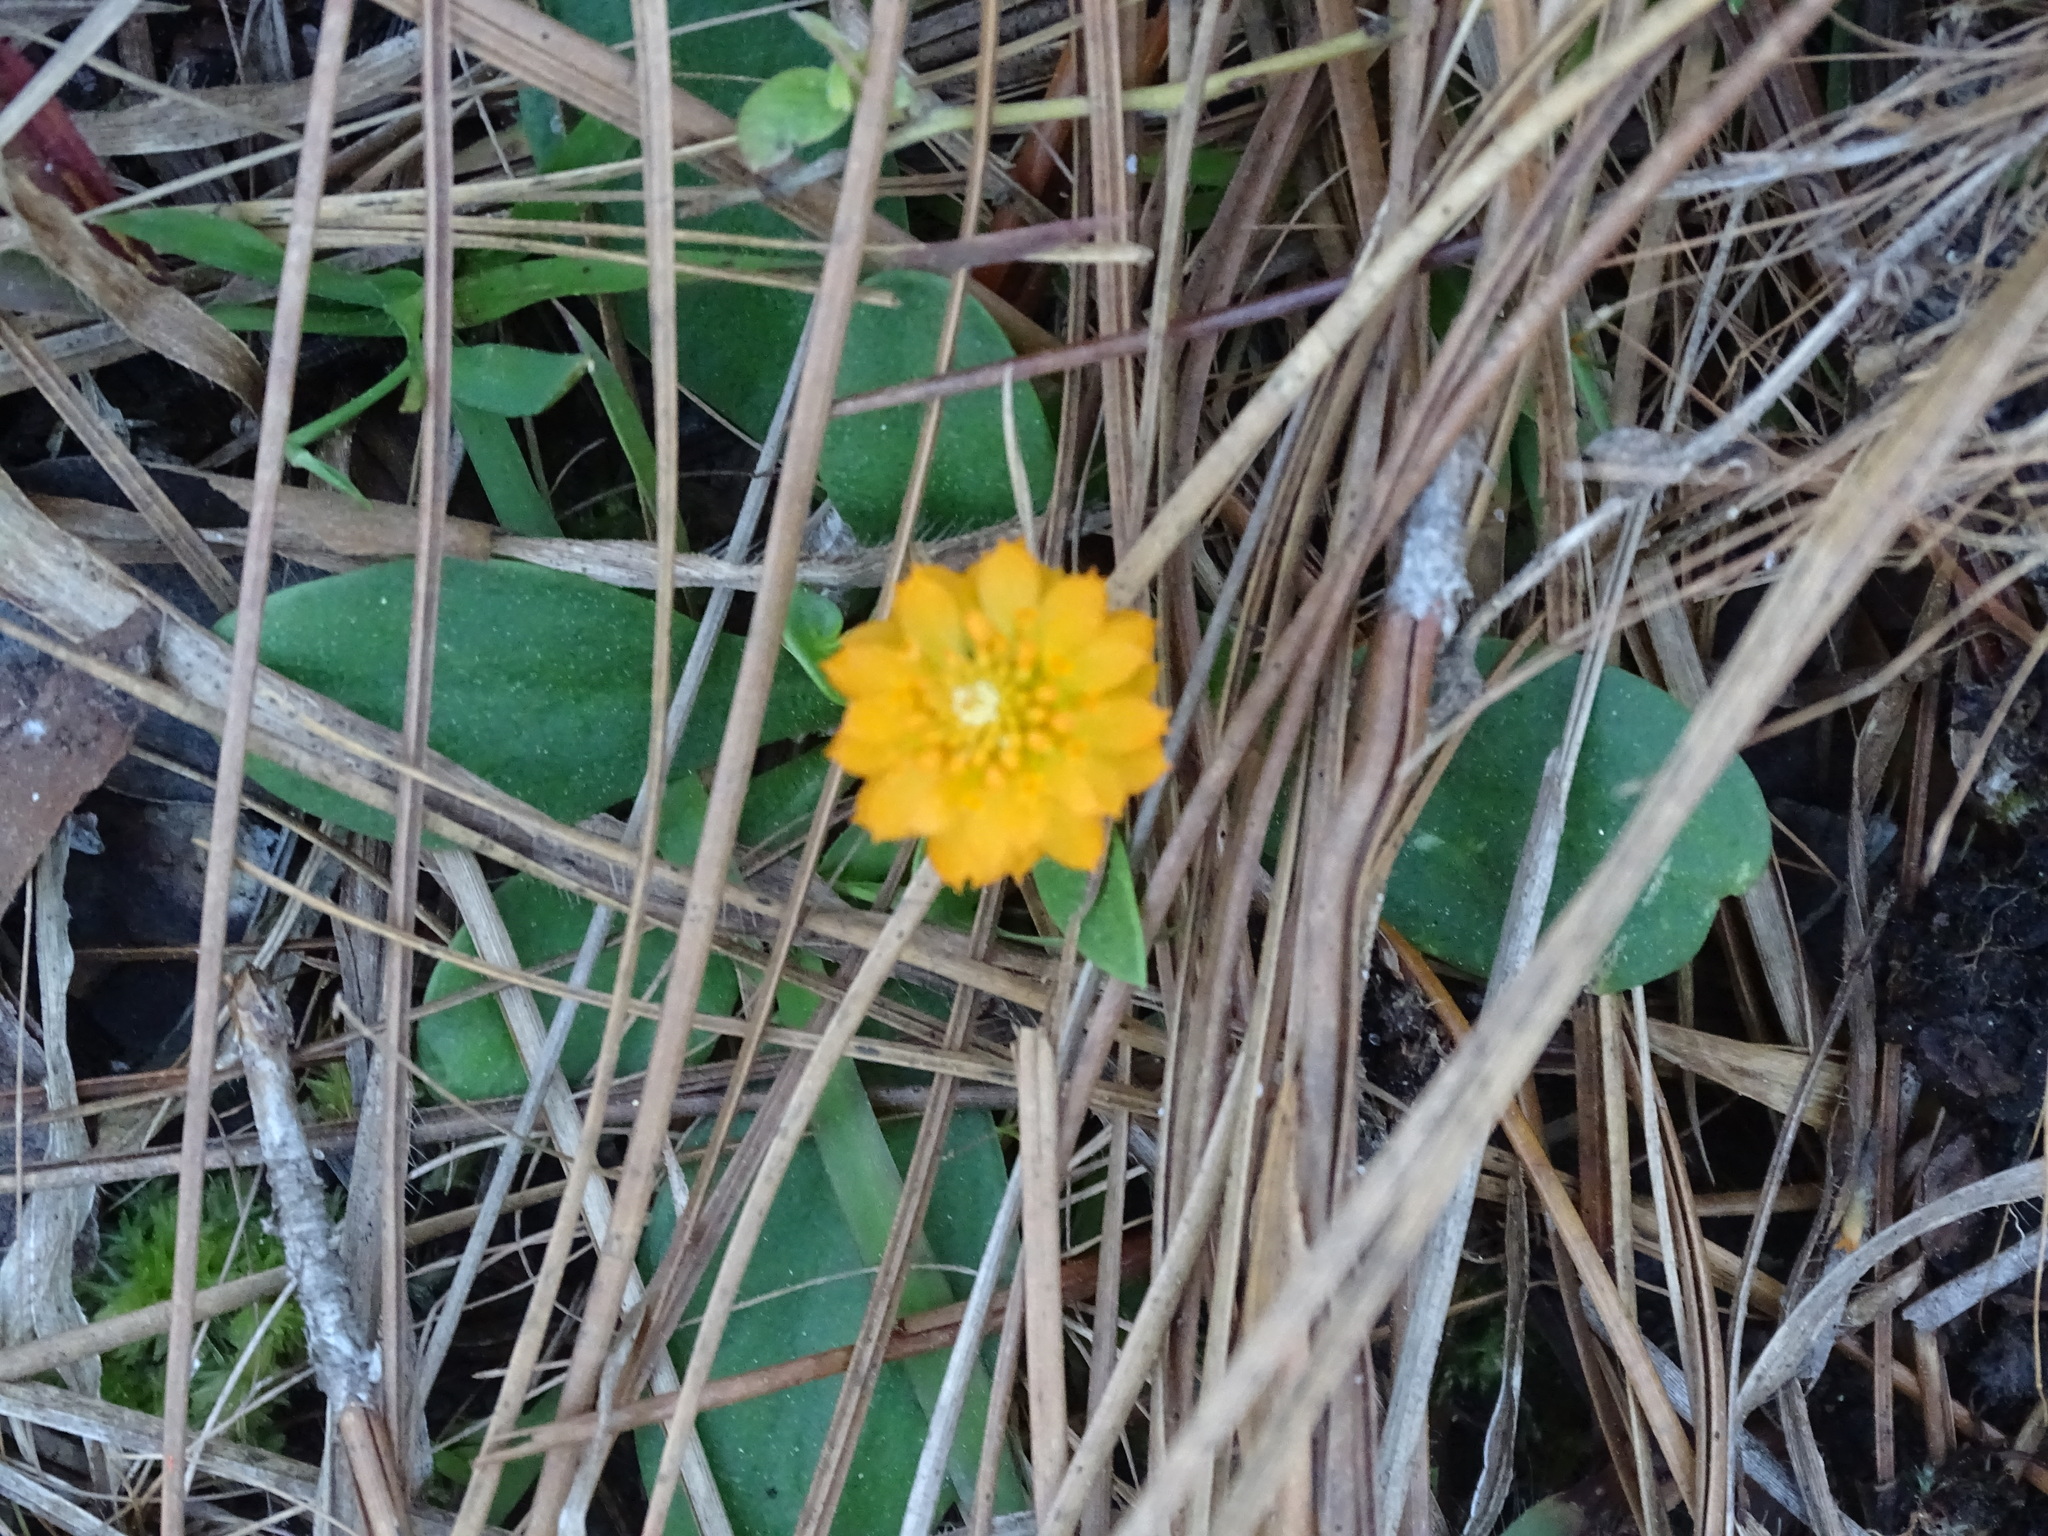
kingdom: Plantae
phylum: Tracheophyta
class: Magnoliopsida
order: Fabales
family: Polygalaceae
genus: Polygala
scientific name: Polygala lutea
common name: Orange milkwort
